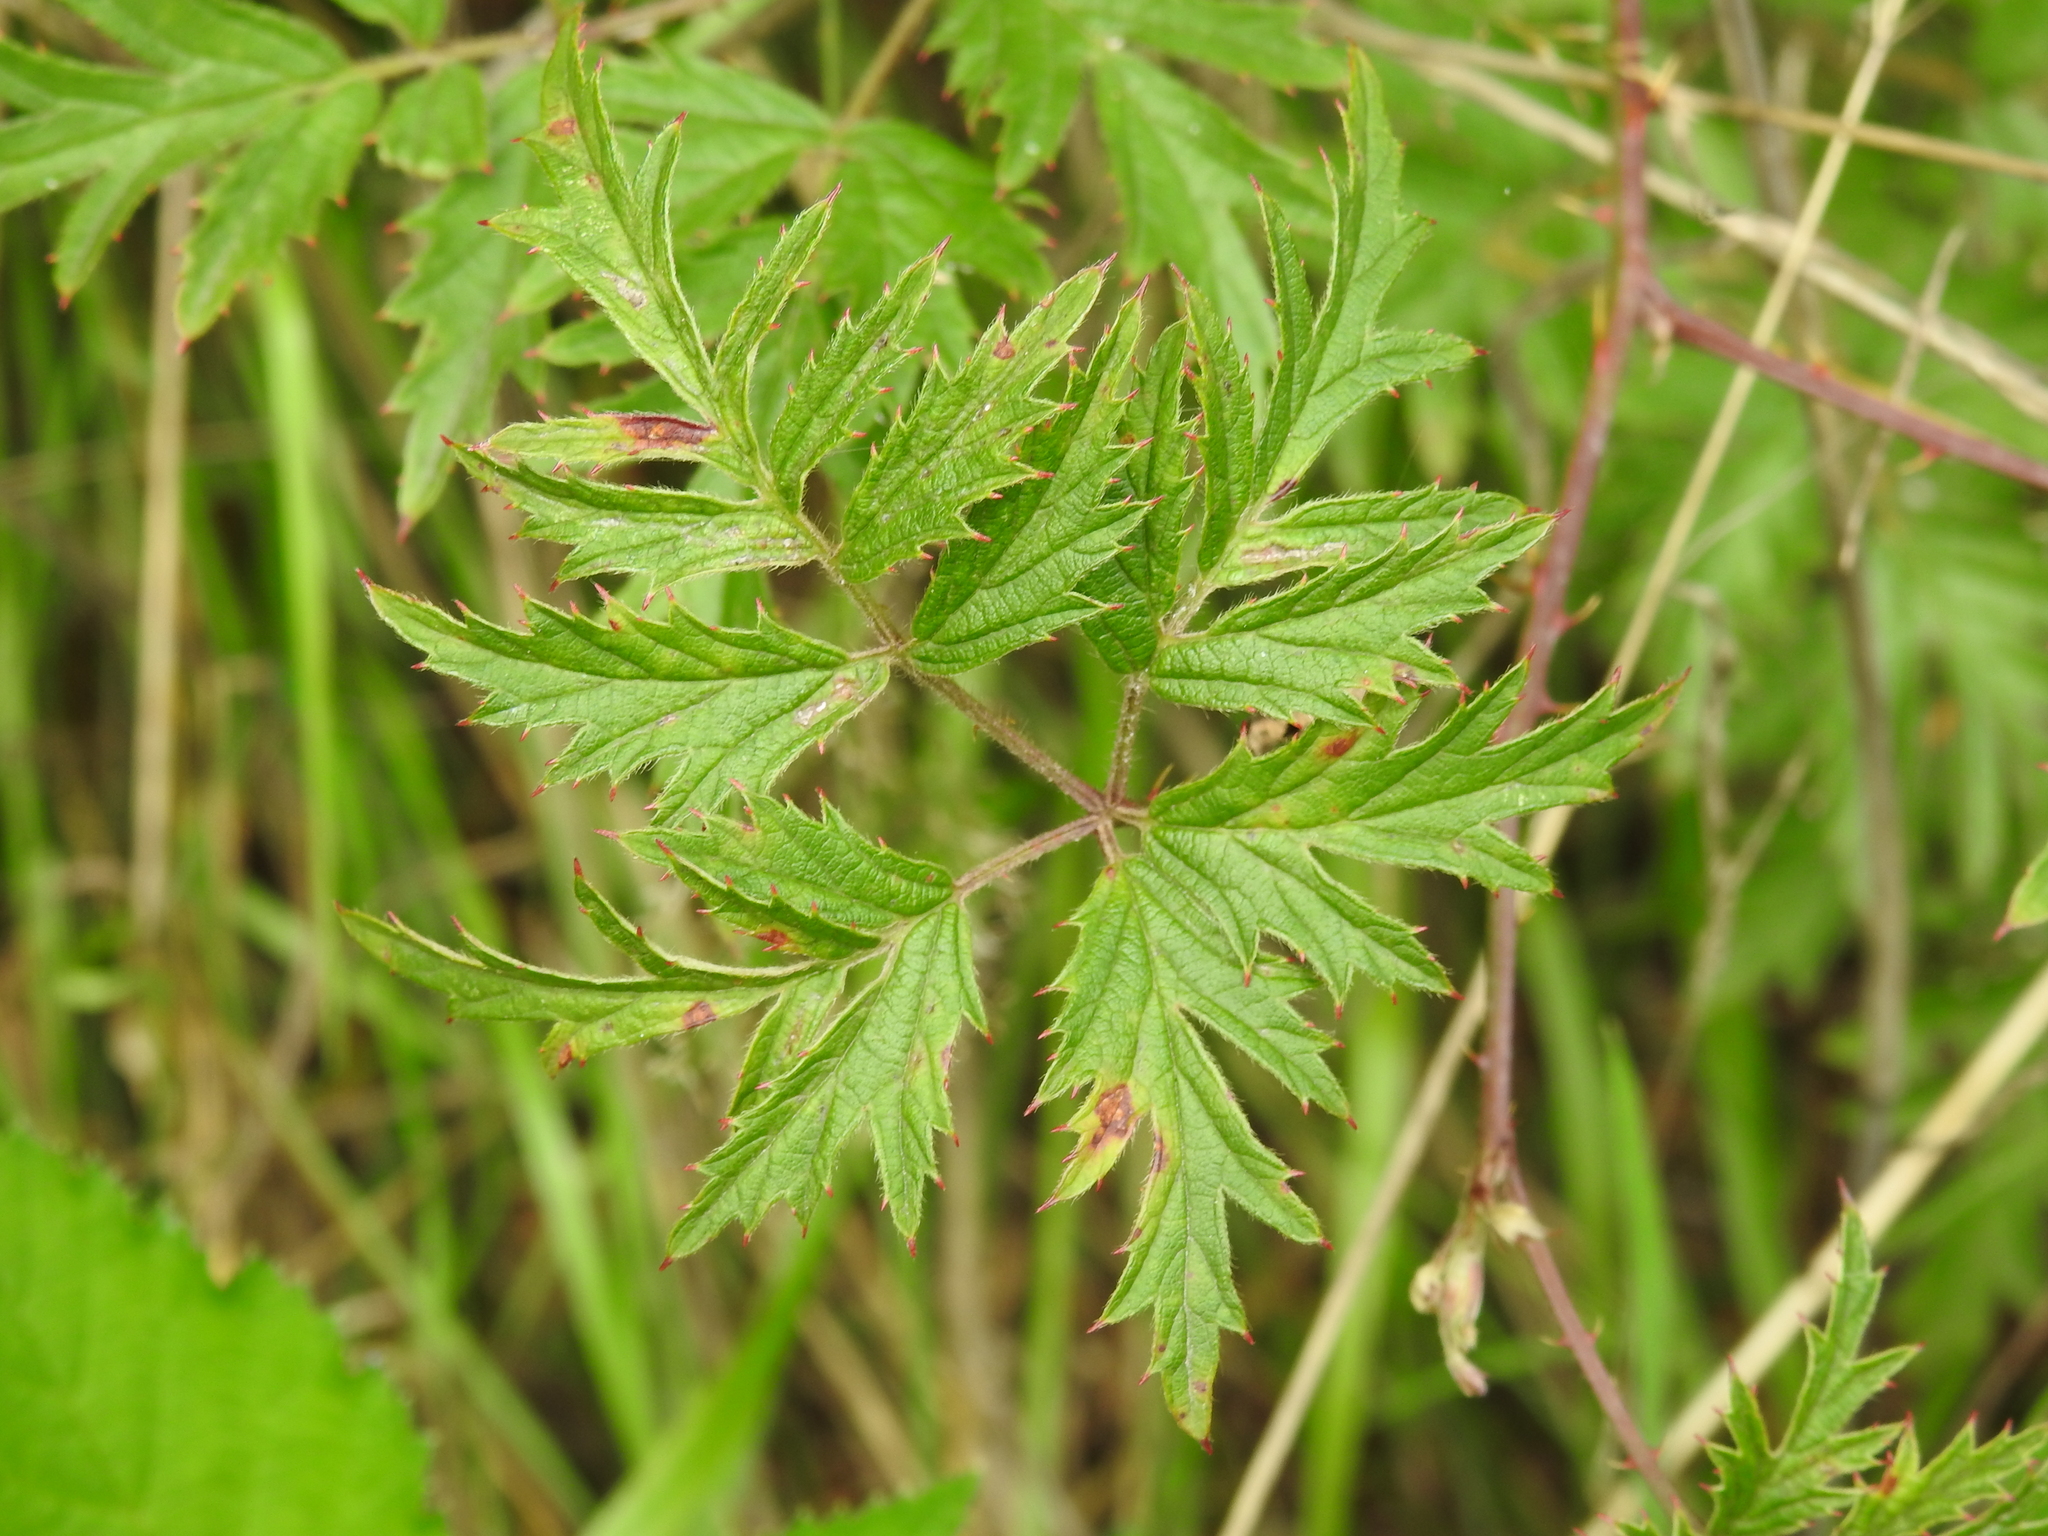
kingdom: Plantae
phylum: Tracheophyta
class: Magnoliopsida
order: Rosales
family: Rosaceae
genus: Rubus
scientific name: Rubus laciniatus
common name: Evergreen blackberry
